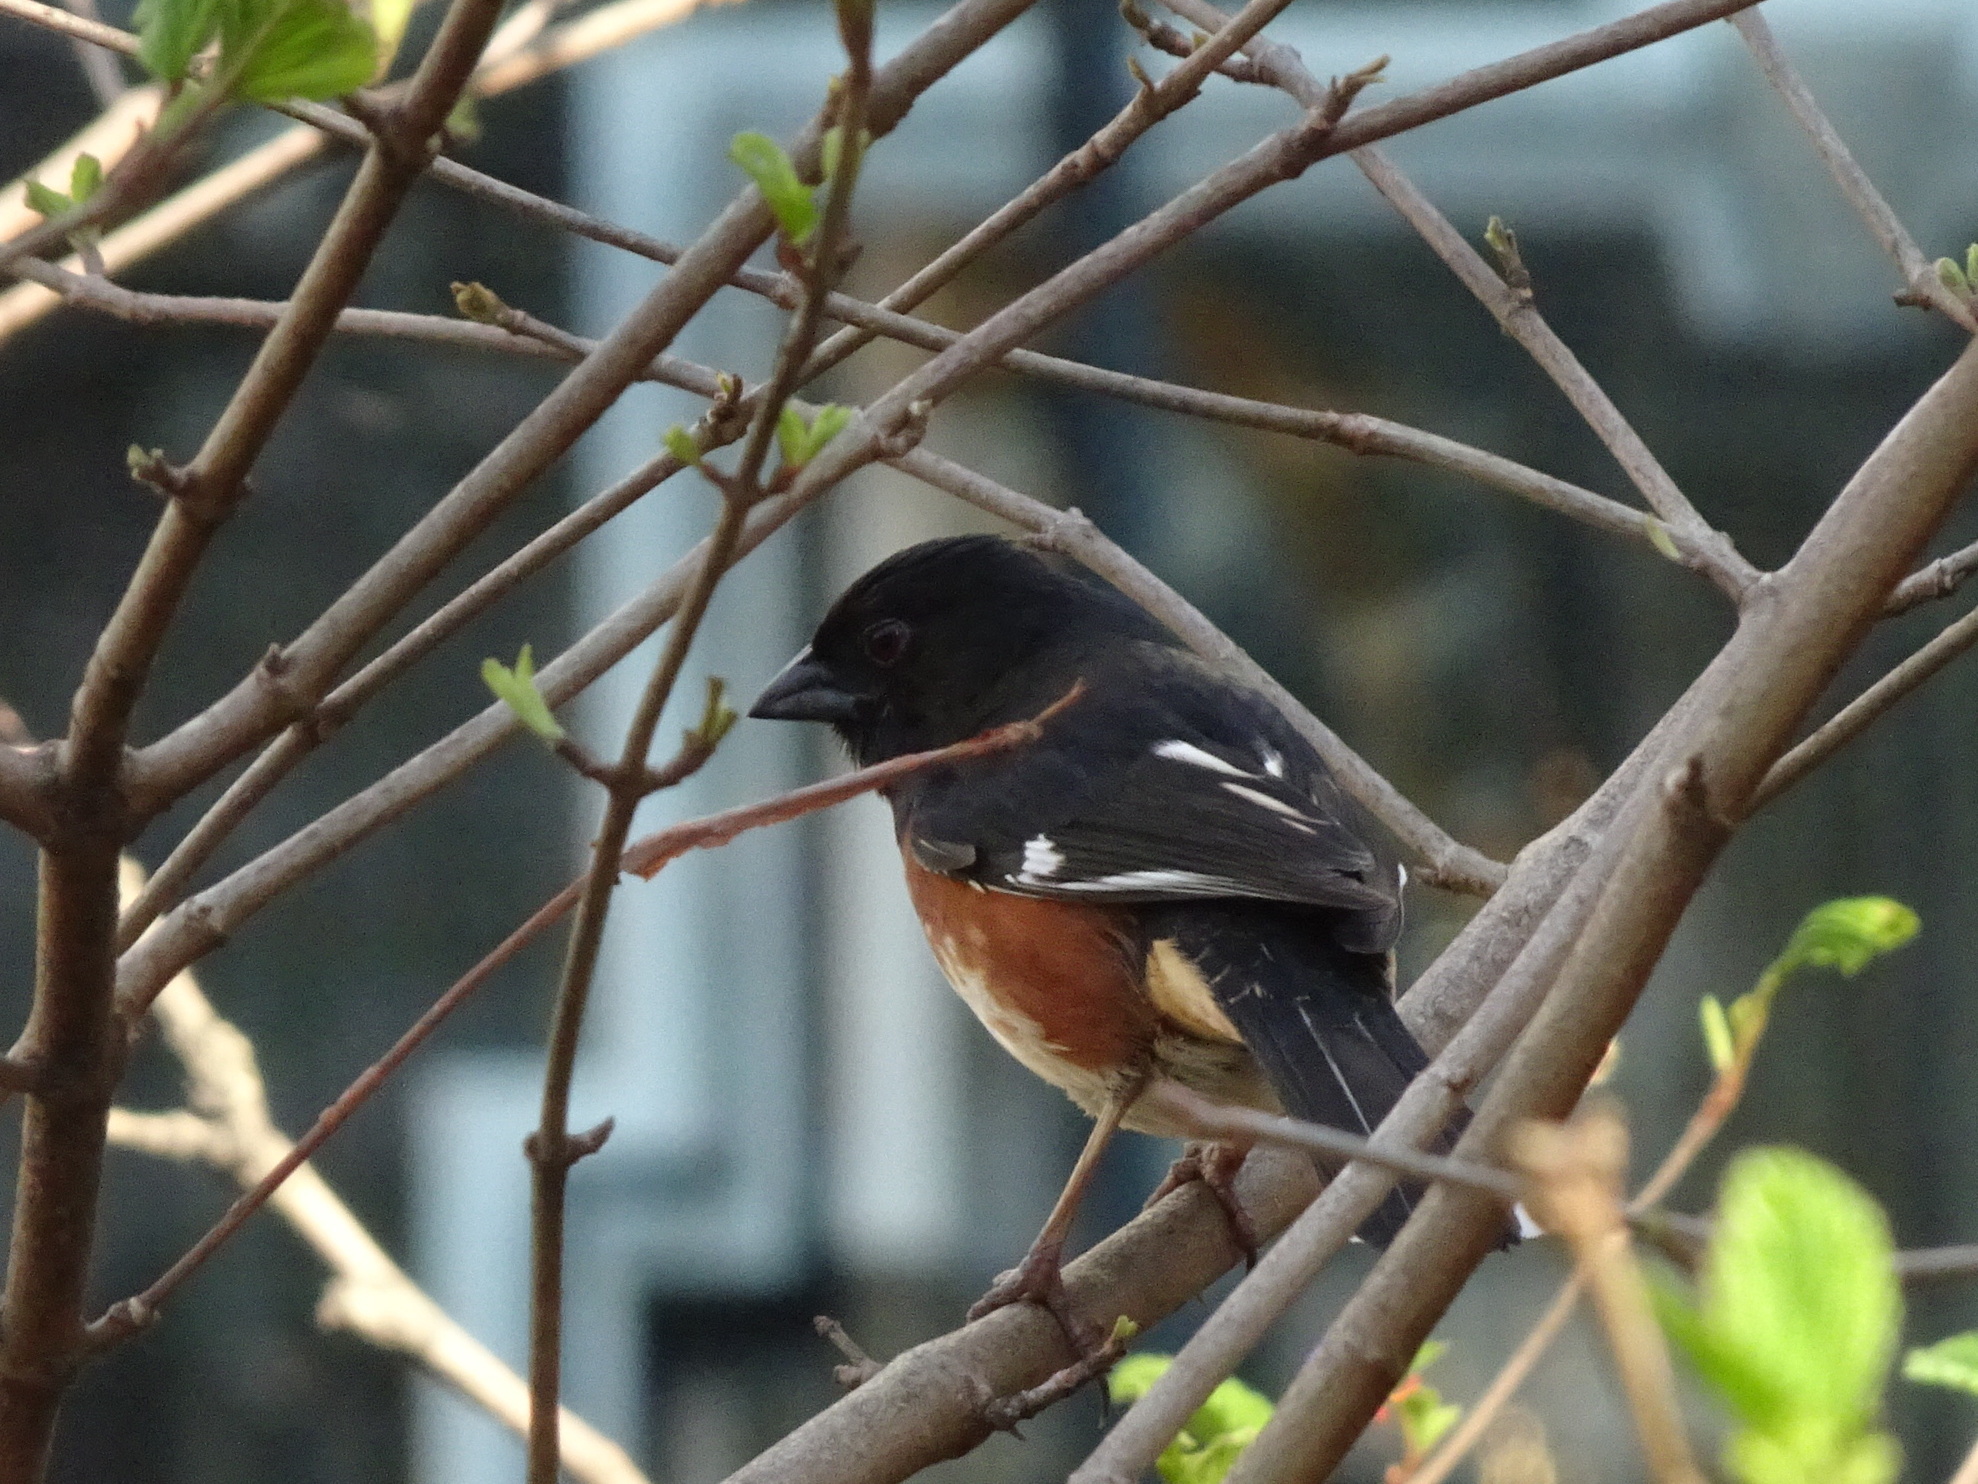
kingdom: Animalia
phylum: Chordata
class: Aves
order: Passeriformes
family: Passerellidae
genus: Pipilo
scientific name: Pipilo erythrophthalmus
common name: Eastern towhee
